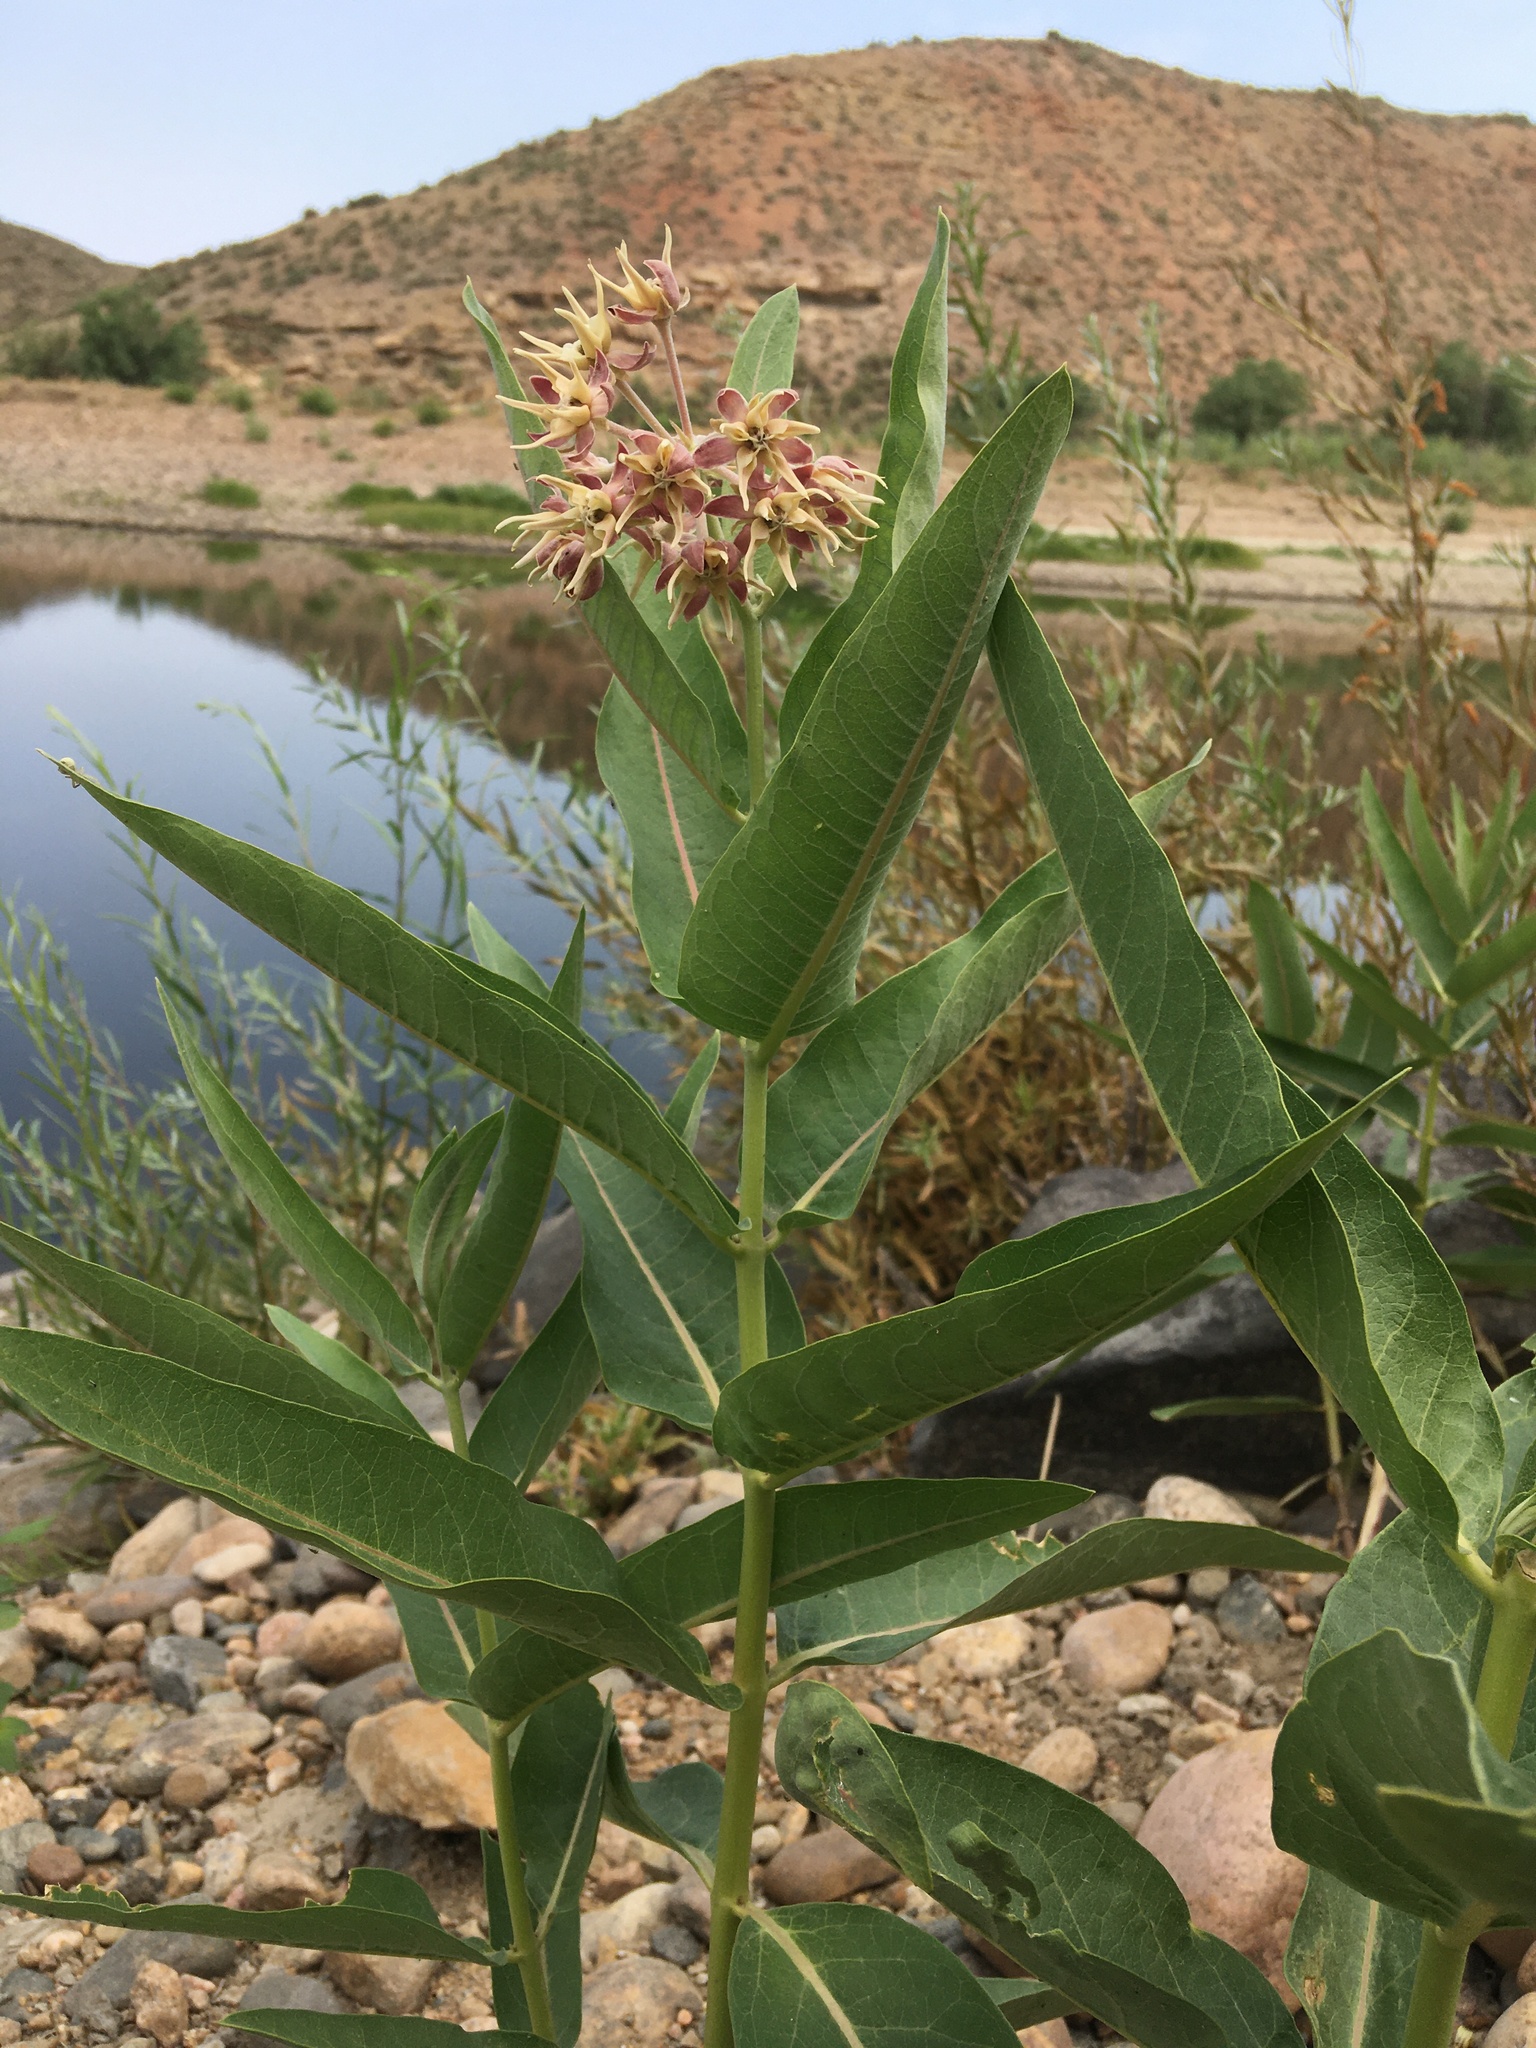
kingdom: Plantae
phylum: Tracheophyta
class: Magnoliopsida
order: Gentianales
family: Apocynaceae
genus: Asclepias
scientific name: Asclepias speciosa
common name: Showy milkweed
